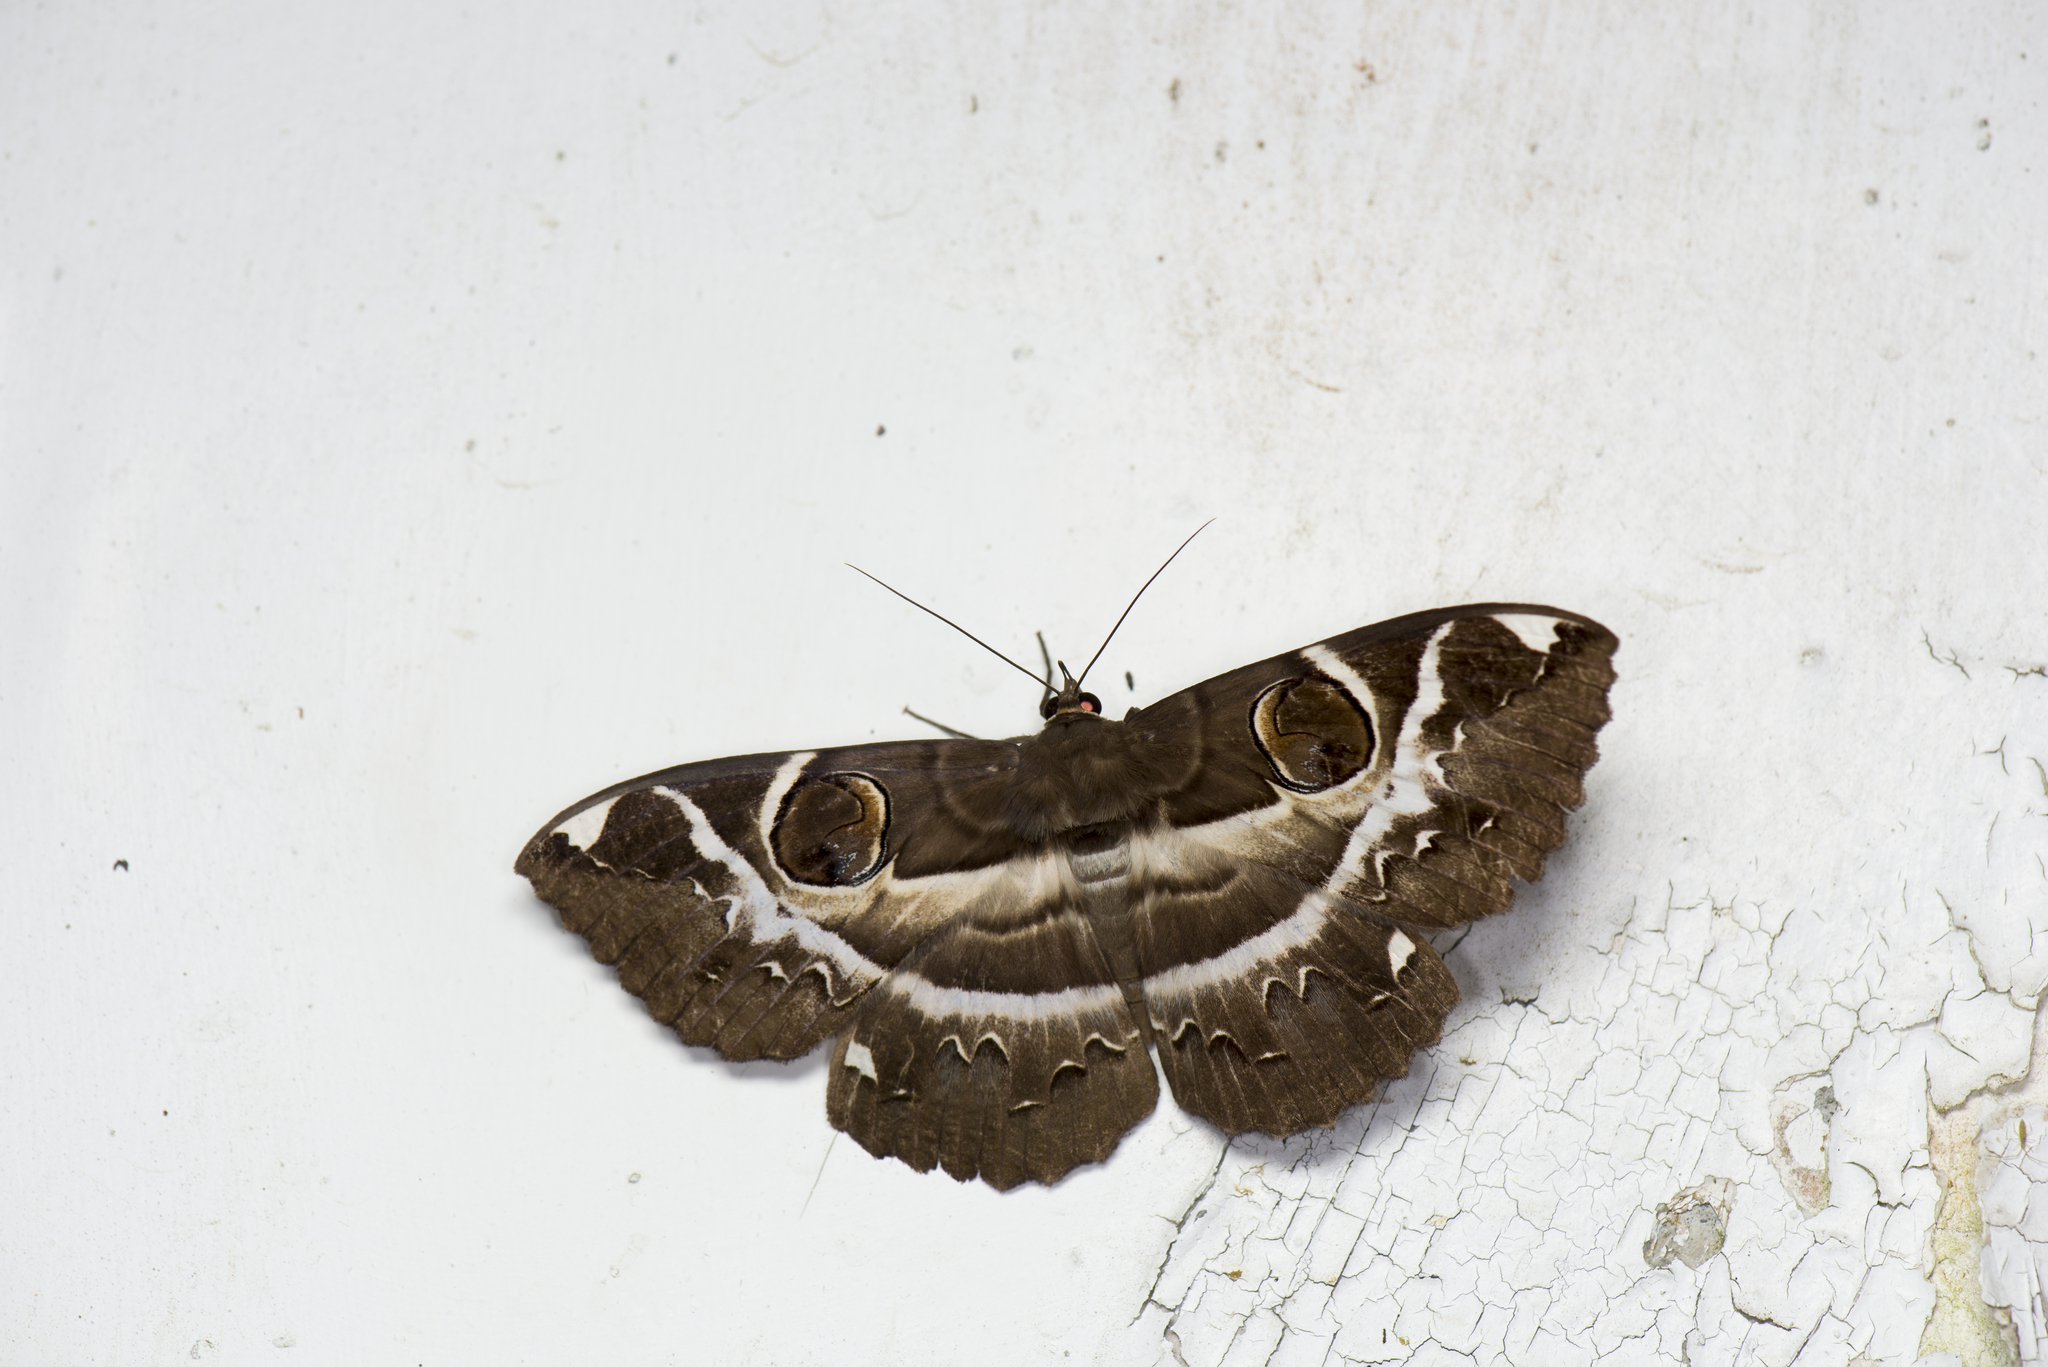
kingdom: Animalia
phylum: Arthropoda
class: Insecta
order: Lepidoptera
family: Erebidae
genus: Erebus
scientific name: Erebus ephesperis
